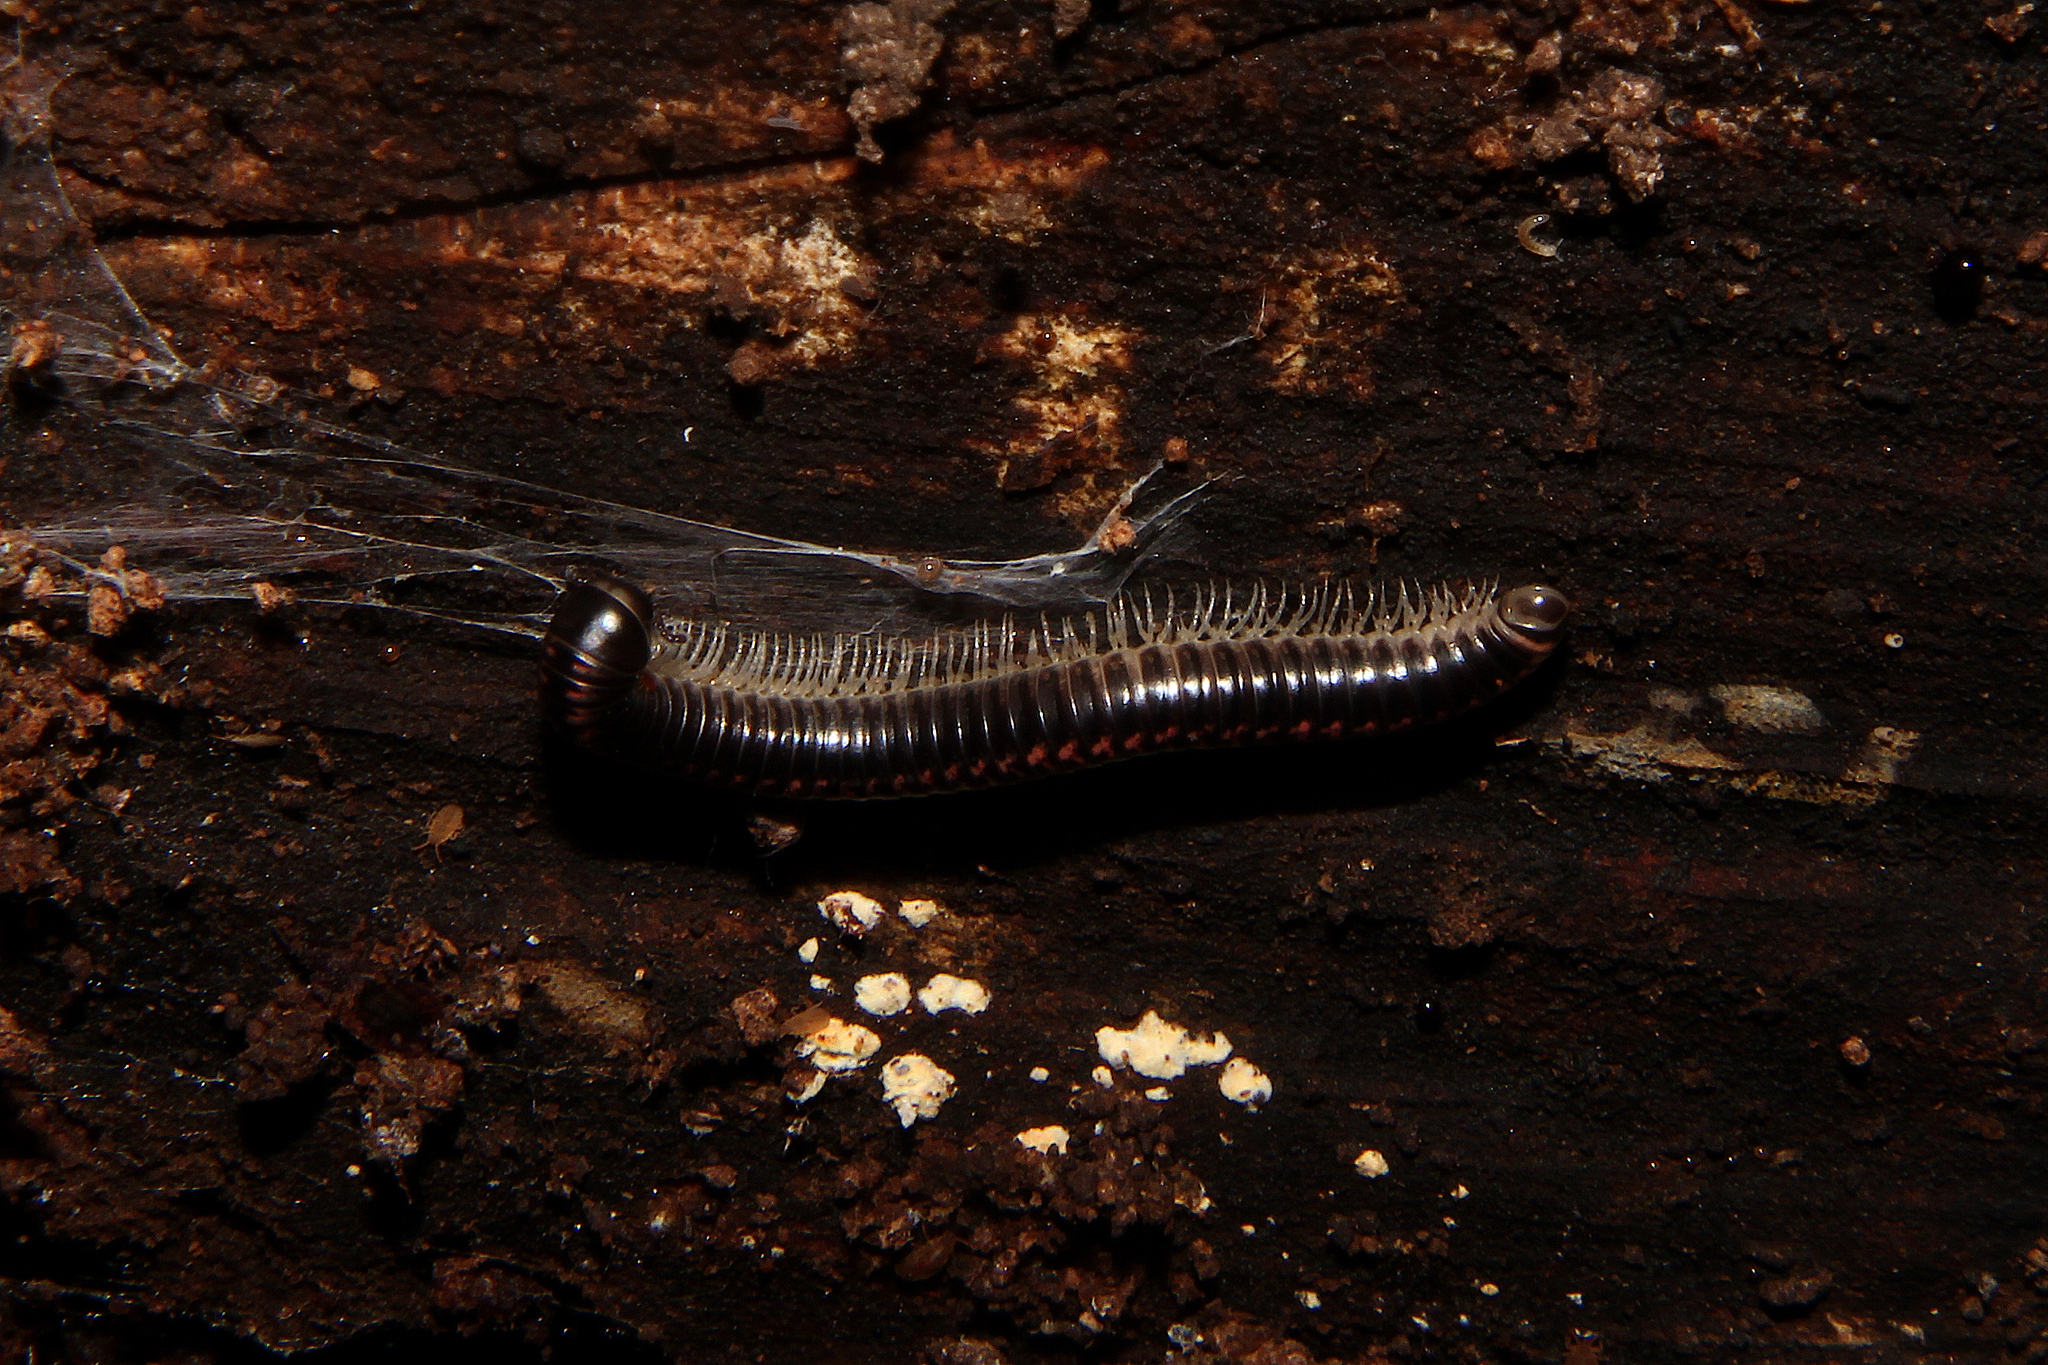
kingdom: Animalia
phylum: Arthropoda
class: Diplopoda
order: Spirobolida
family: Spirobolellidae
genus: Spirobolellus
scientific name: Spirobolellus antipodarum
